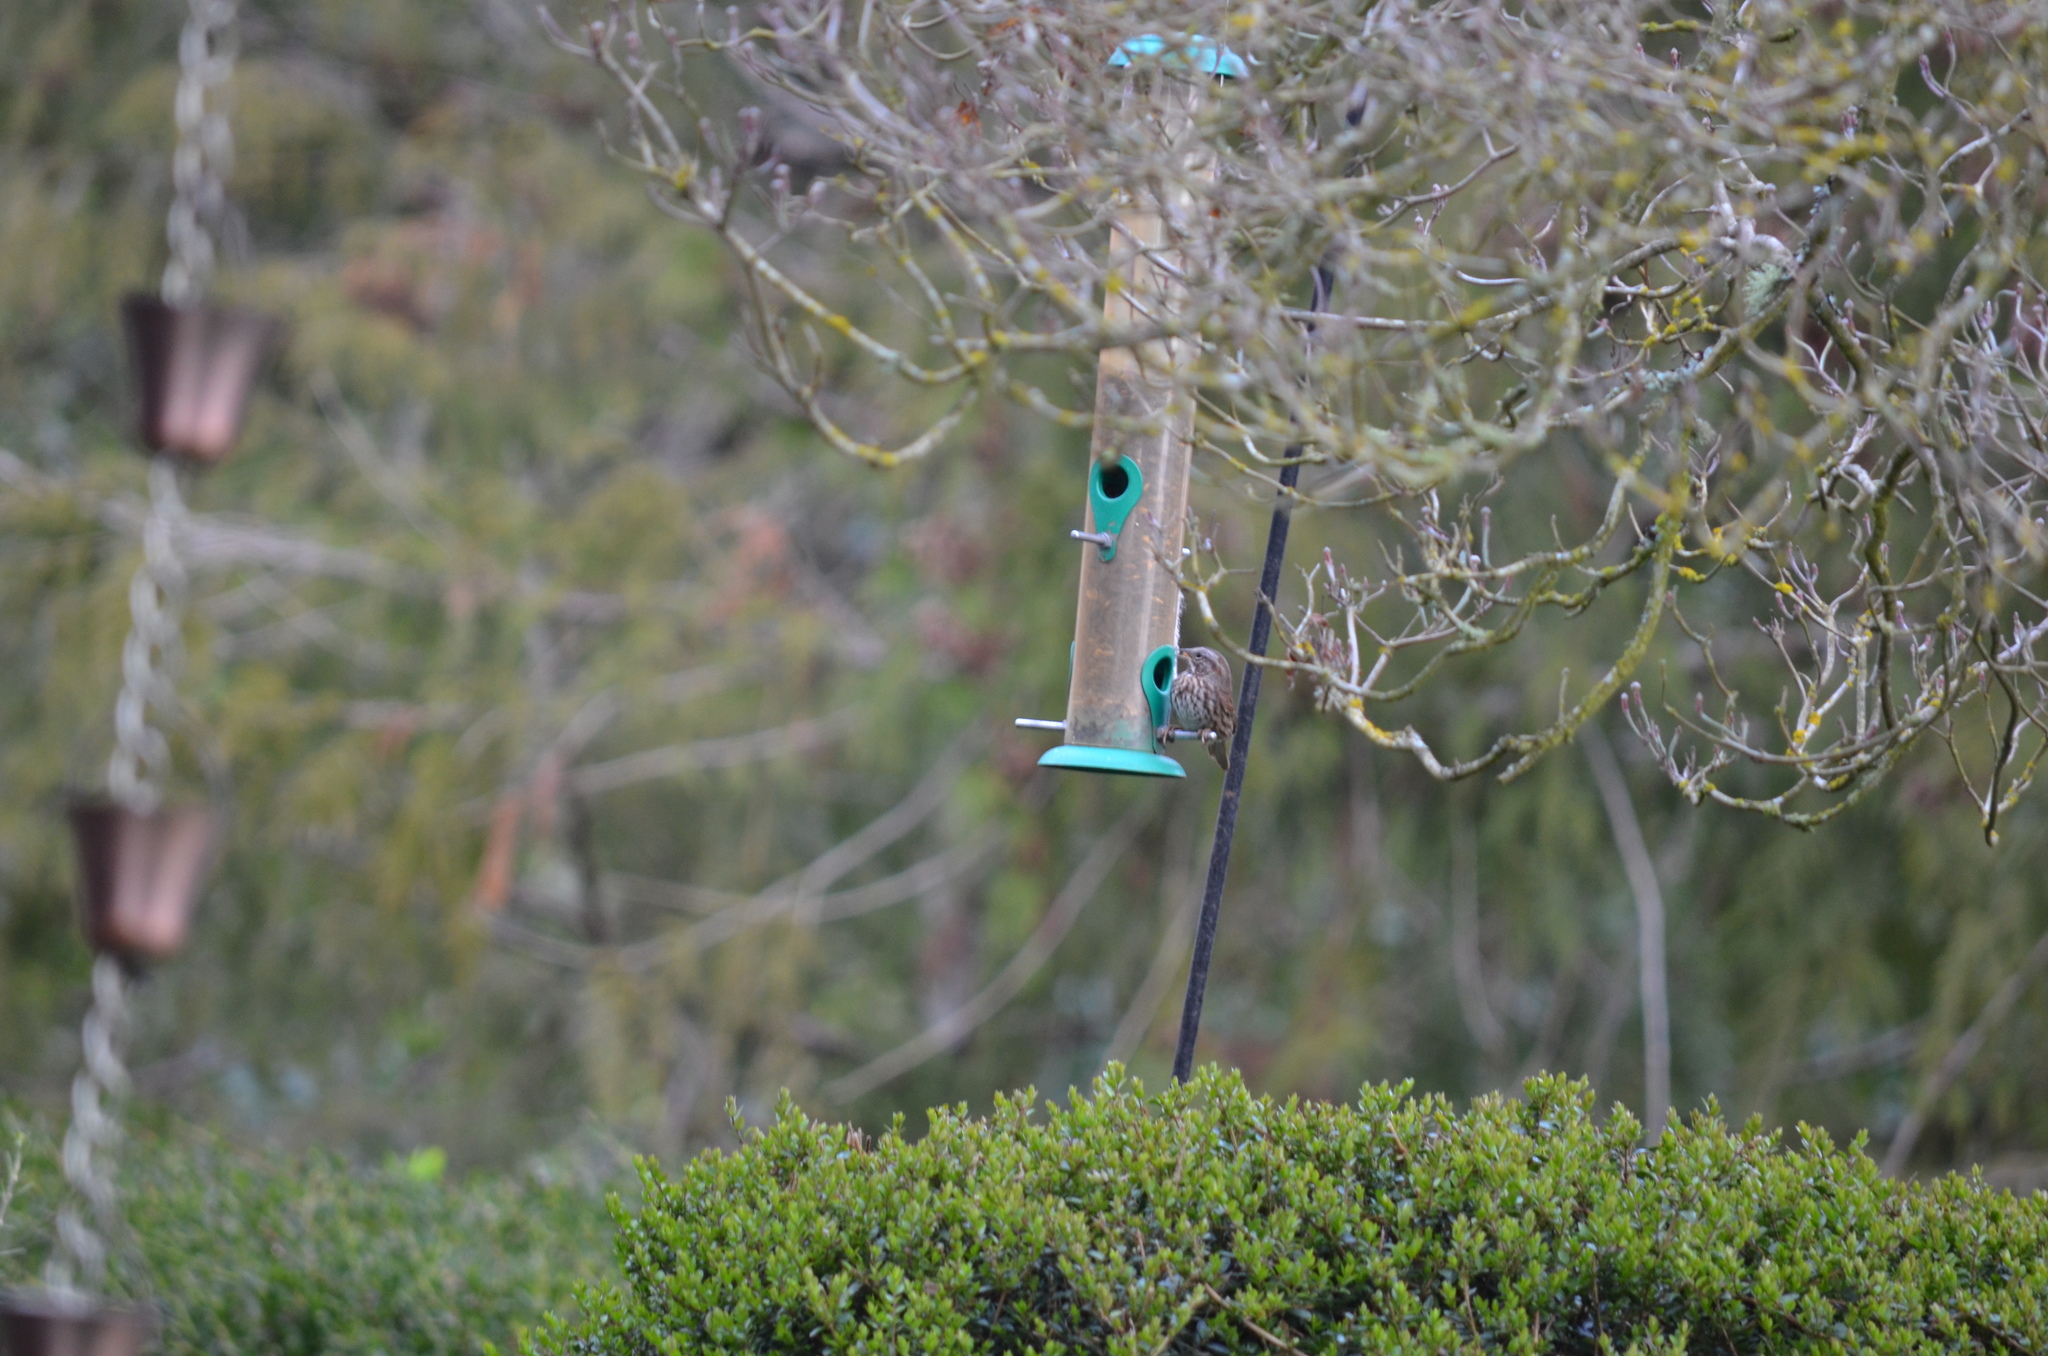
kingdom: Animalia
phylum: Chordata
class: Aves
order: Passeriformes
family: Fringillidae
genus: Haemorhous
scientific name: Haemorhous mexicanus
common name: House finch
